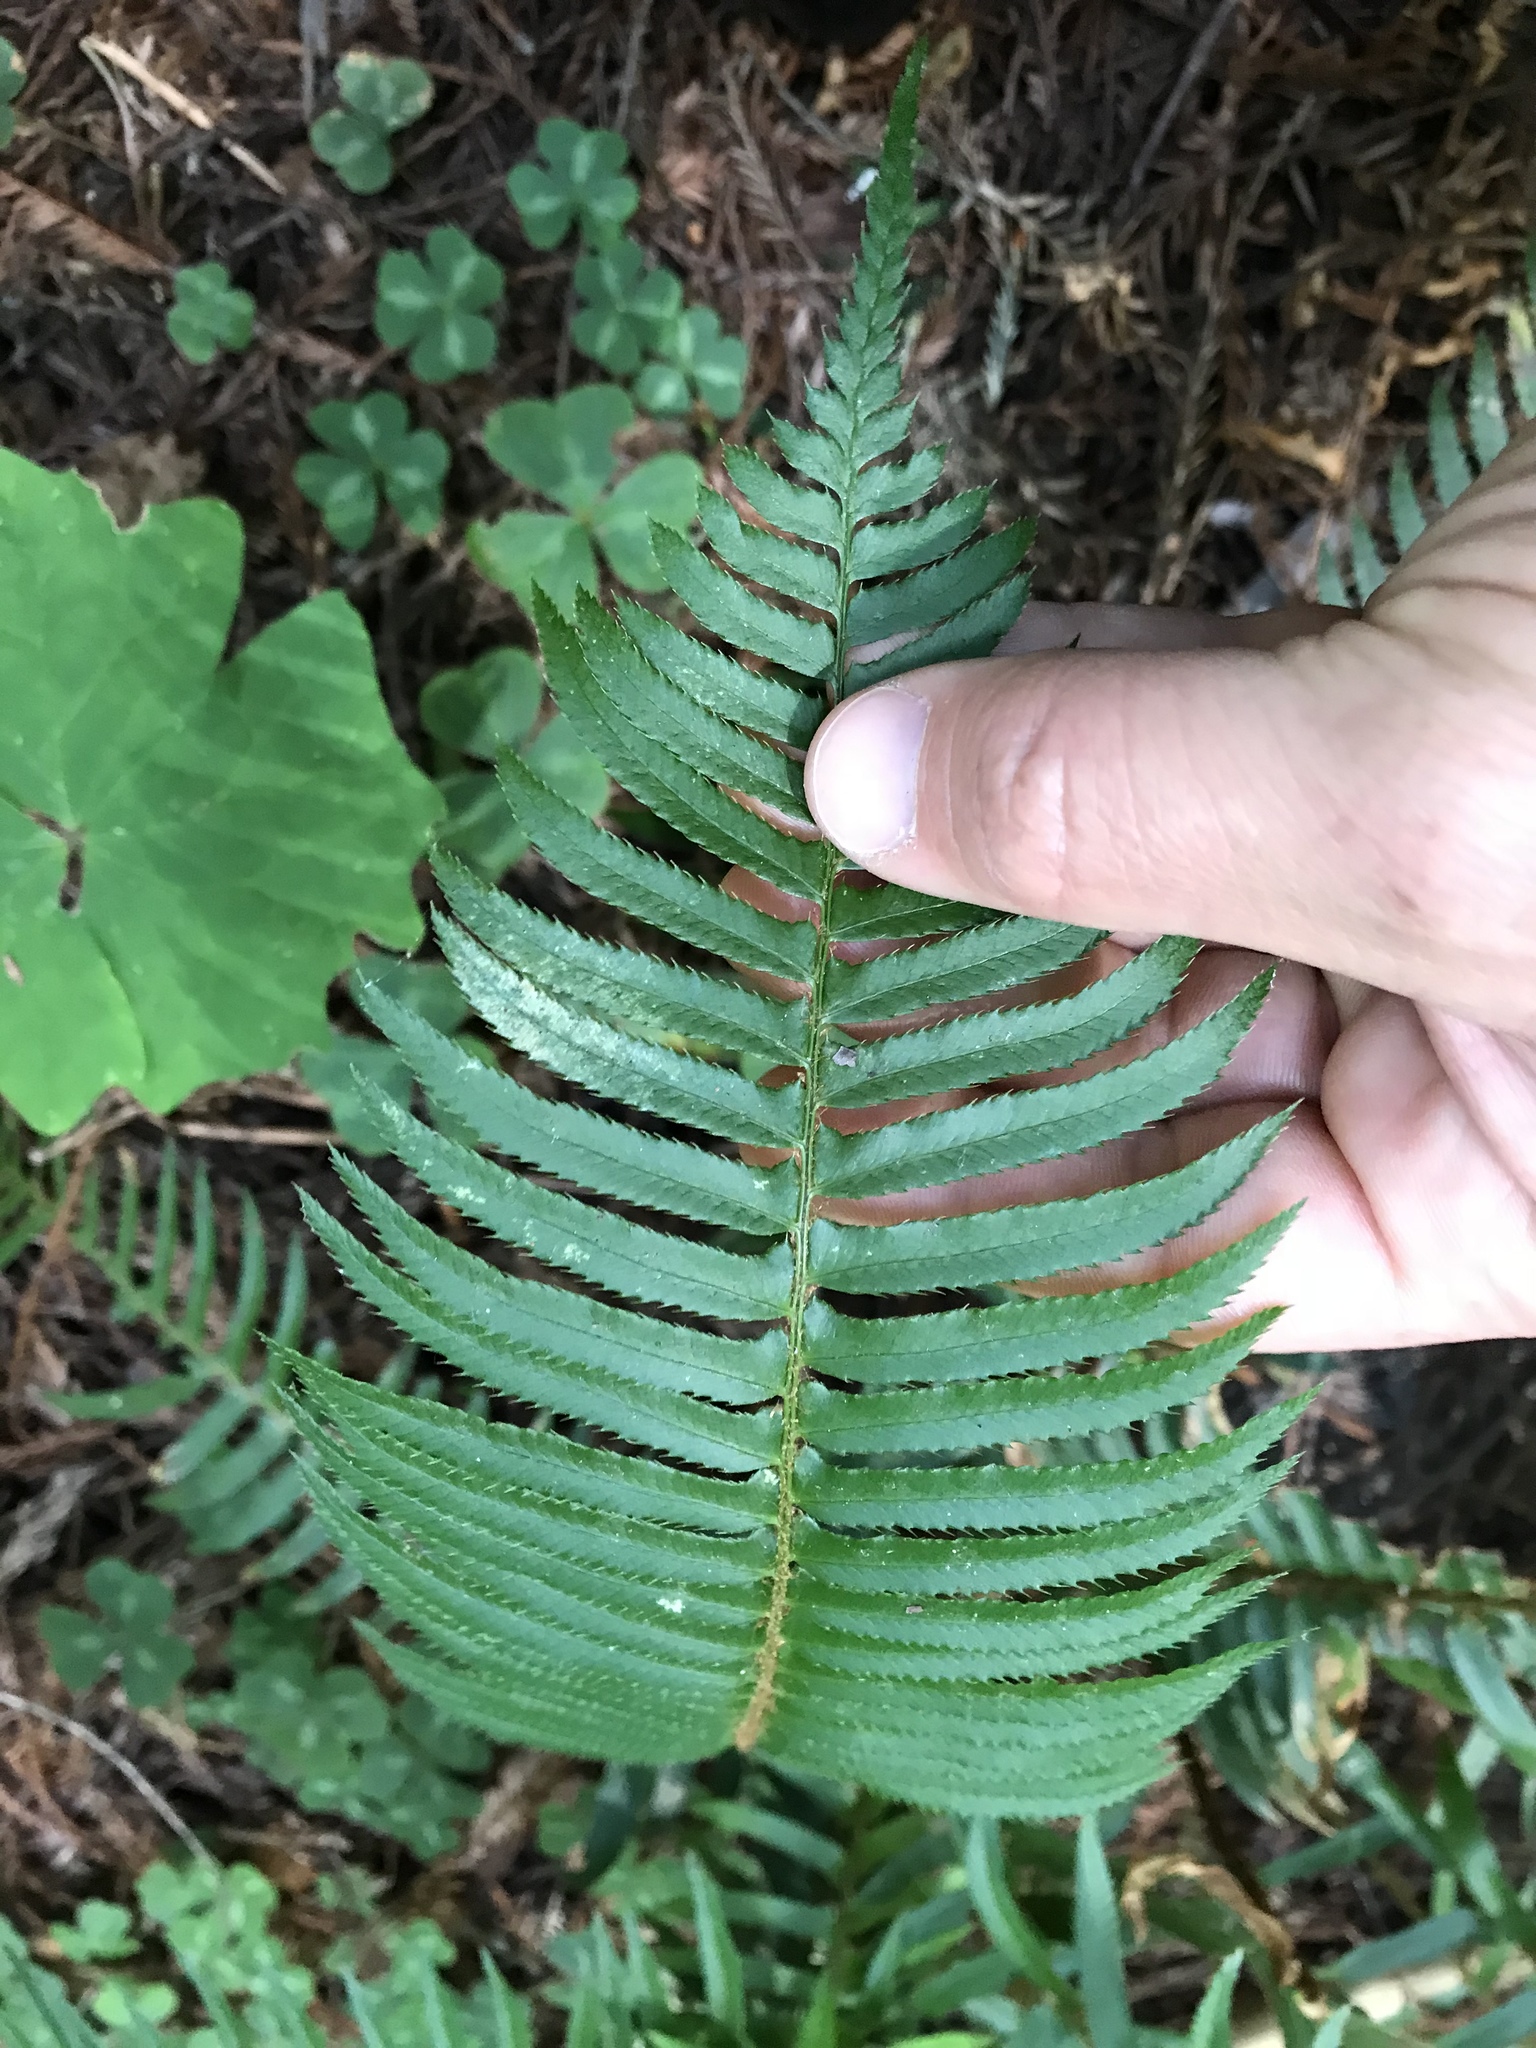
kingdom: Plantae
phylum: Tracheophyta
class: Polypodiopsida
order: Polypodiales
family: Dryopteridaceae
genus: Polystichum
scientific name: Polystichum munitum
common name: Western sword-fern
